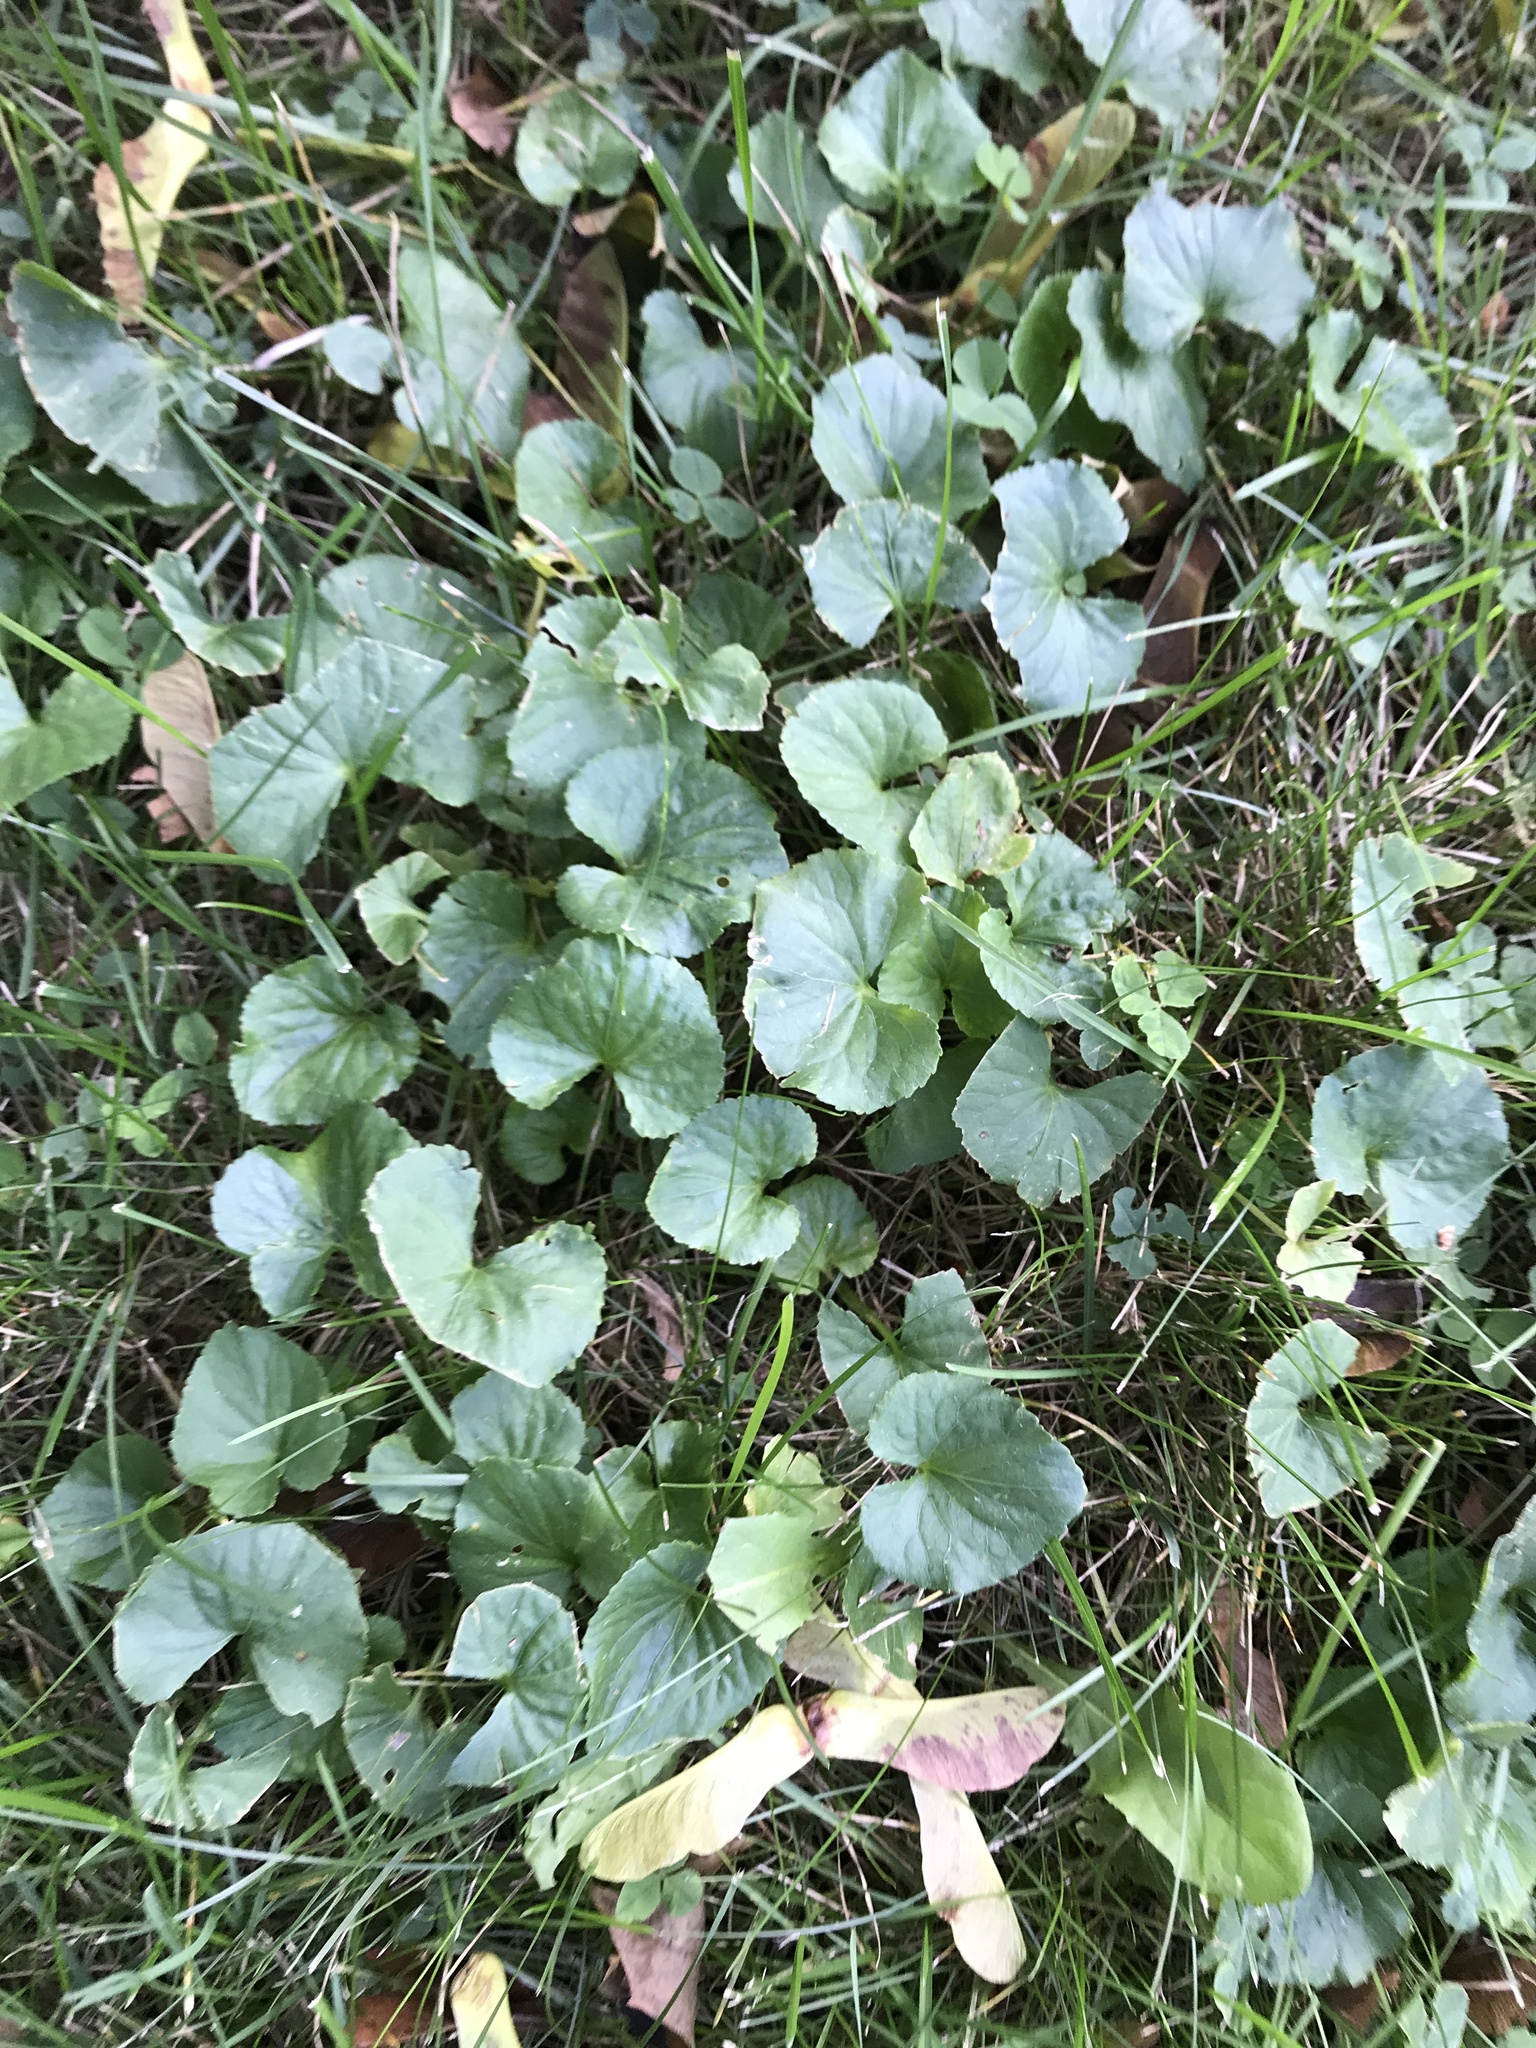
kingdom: Plantae
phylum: Tracheophyta
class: Magnoliopsida
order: Lamiales
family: Lamiaceae
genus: Glechoma
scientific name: Glechoma hederacea
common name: Ground ivy
